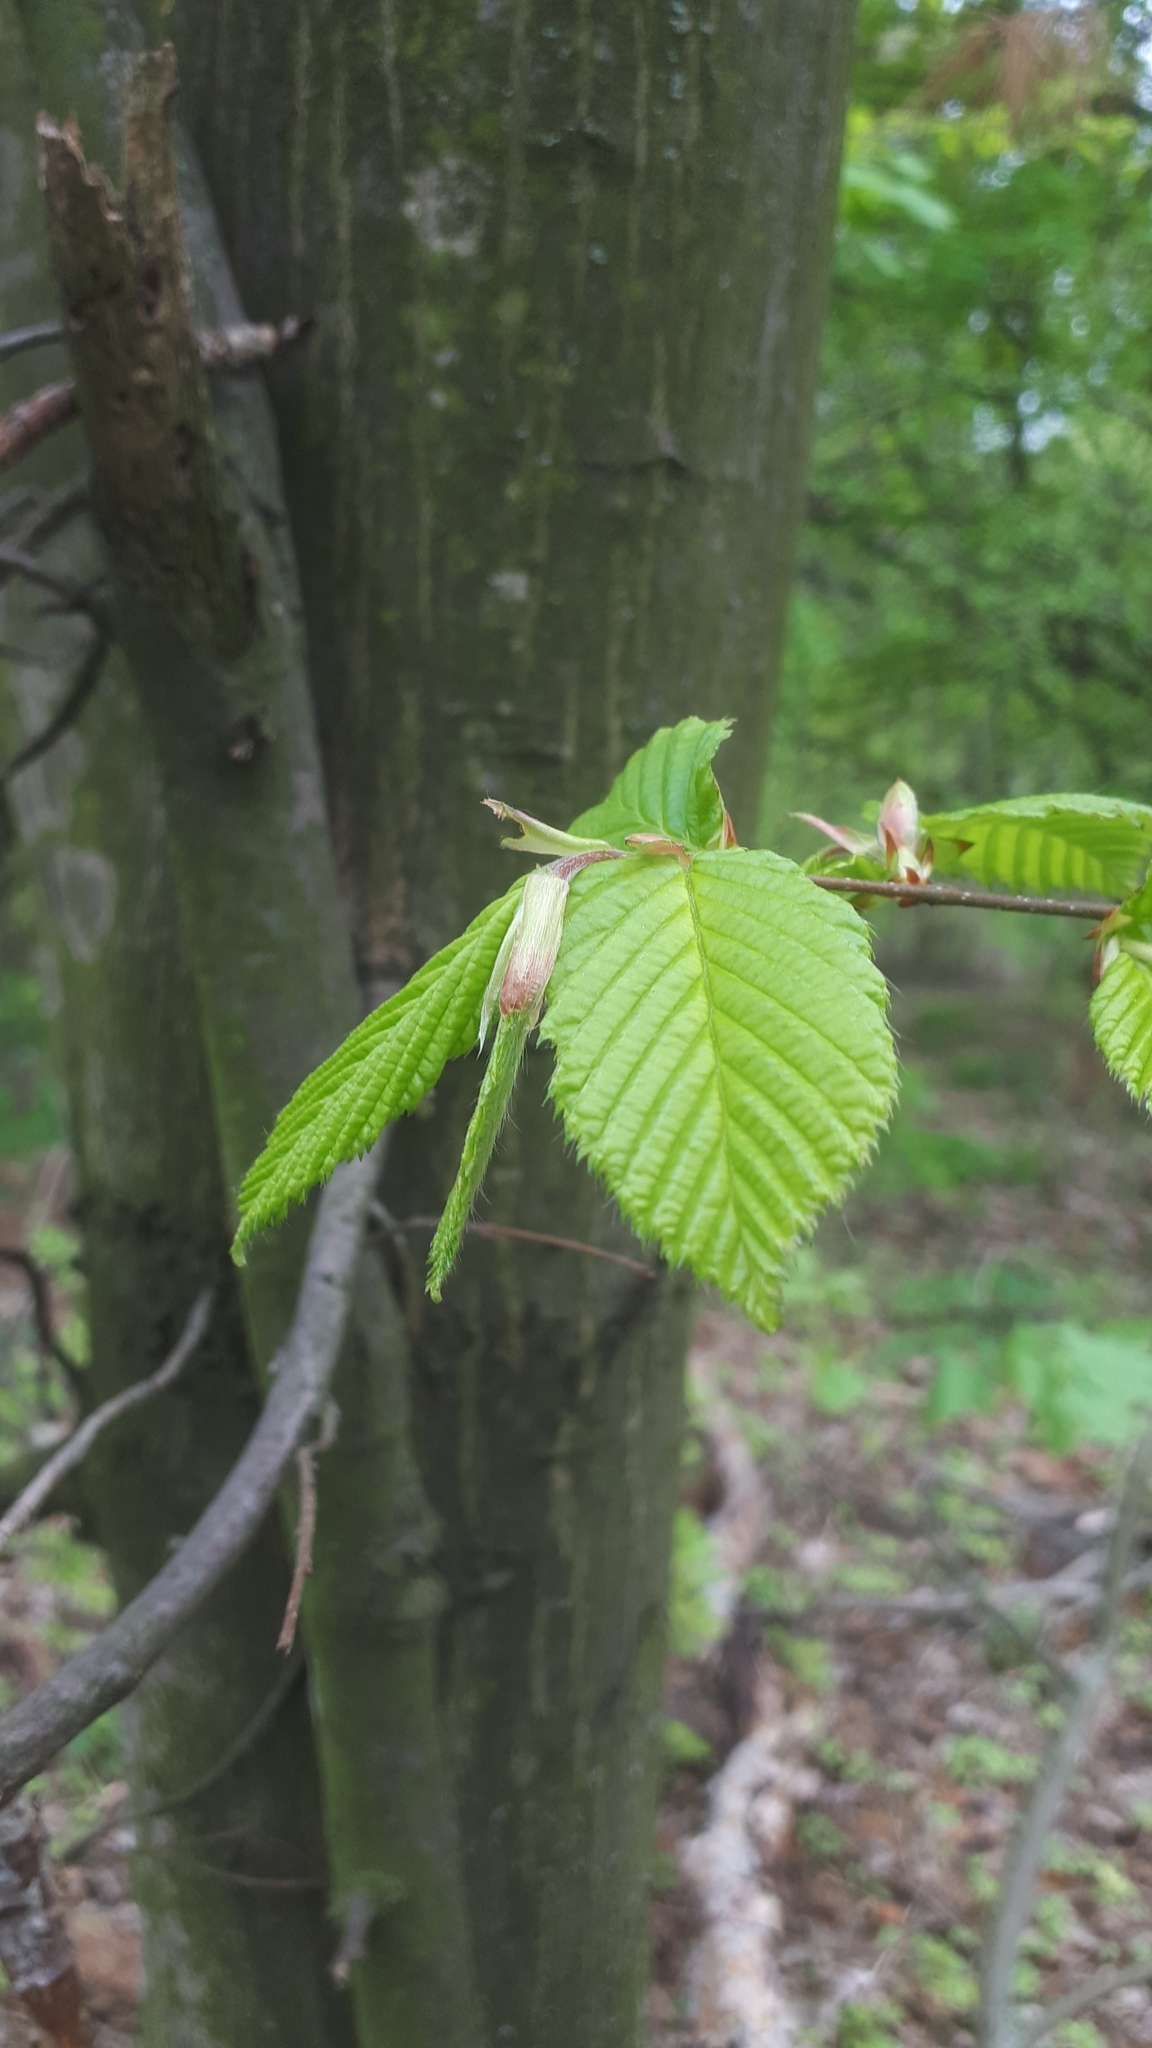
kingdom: Plantae
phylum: Tracheophyta
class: Magnoliopsida
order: Fagales
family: Betulaceae
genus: Carpinus
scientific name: Carpinus betulus
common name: Hornbeam
